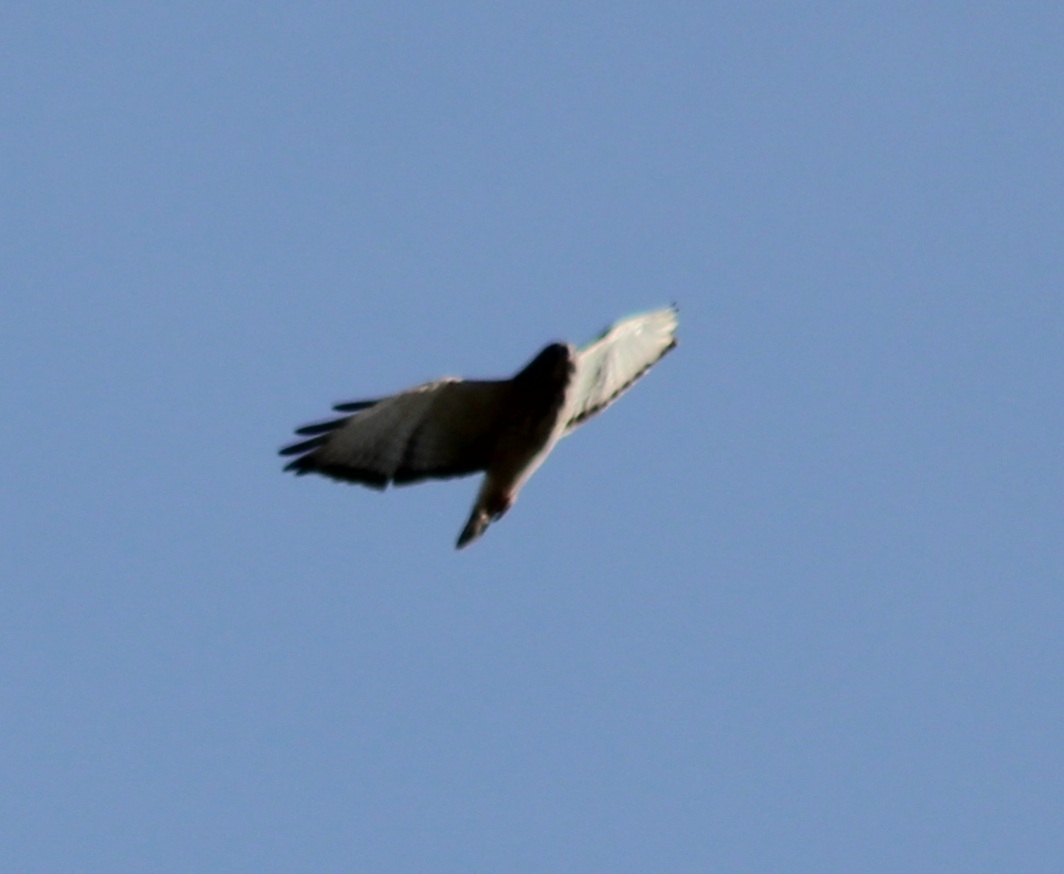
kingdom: Animalia
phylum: Chordata
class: Aves
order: Accipitriformes
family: Accipitridae
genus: Buteo
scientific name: Buteo platypterus
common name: Broad-winged hawk
